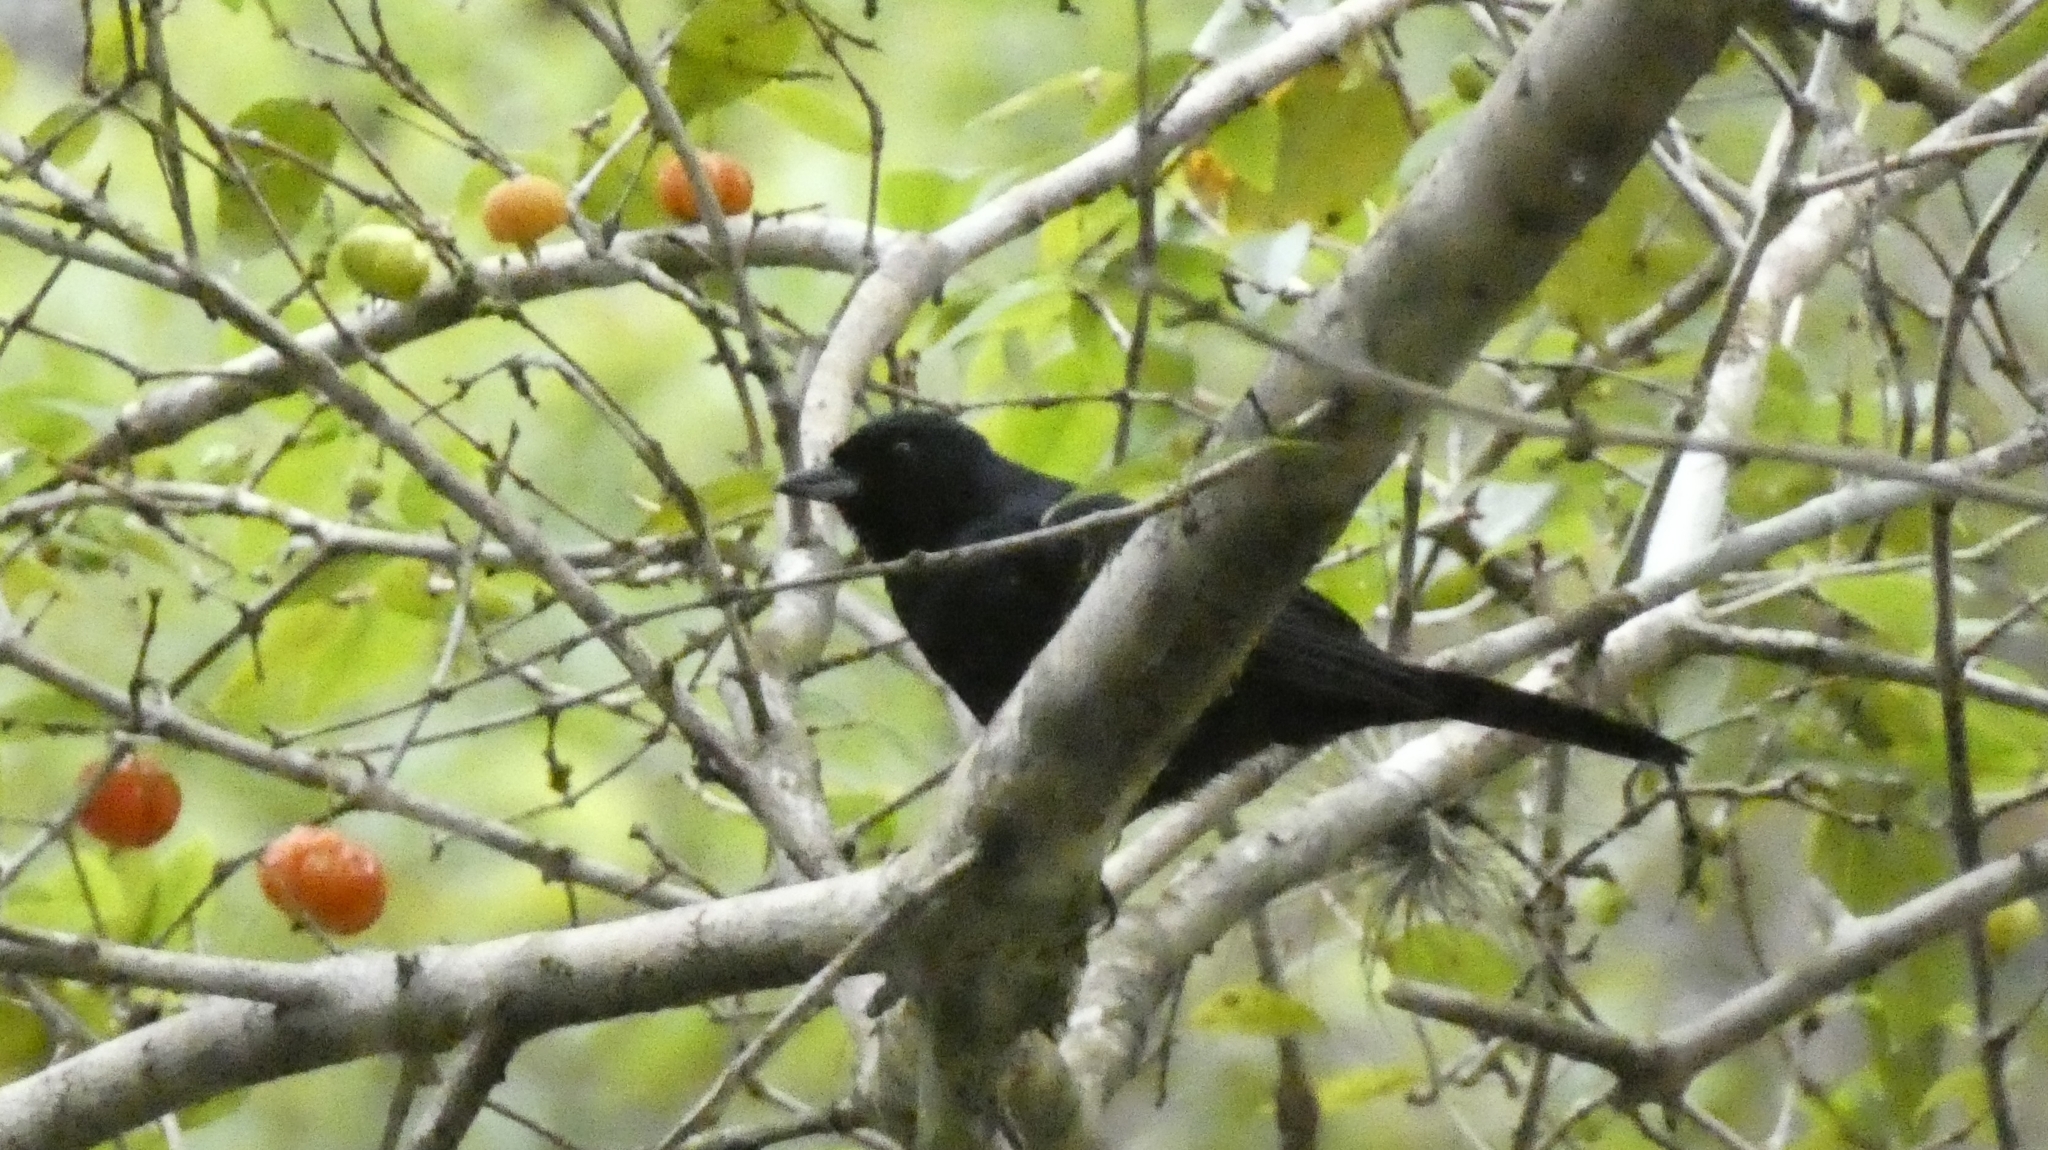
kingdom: Animalia
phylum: Chordata
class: Aves
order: Passeriformes
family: Thraupidae
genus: Tachyphonus
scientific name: Tachyphonus coronatus
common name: Ruby-crowned tanager
